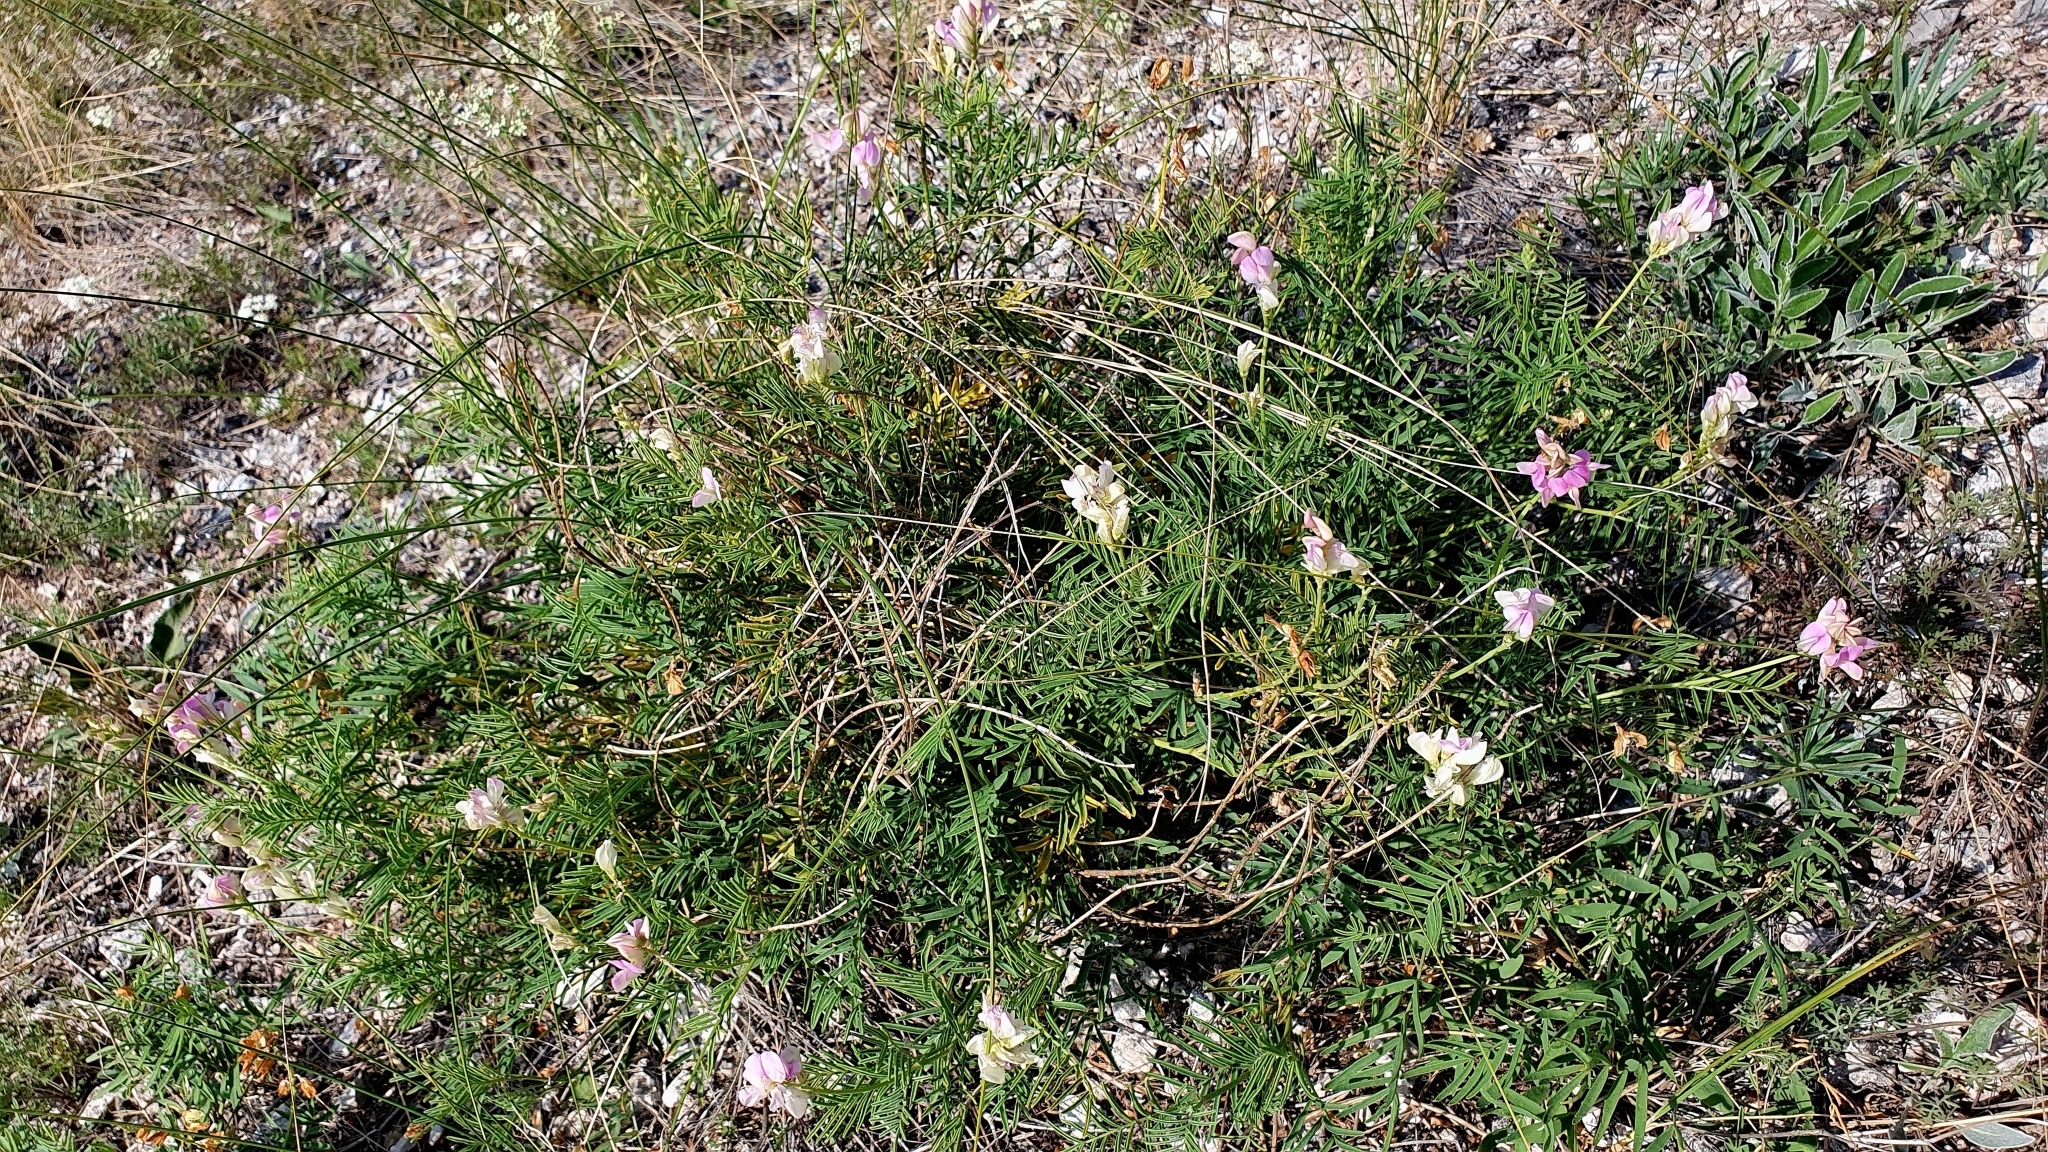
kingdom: Plantae
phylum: Tracheophyta
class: Magnoliopsida
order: Fabales
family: Fabaceae
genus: Hedysarum
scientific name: Hedysarum razoumovianum
